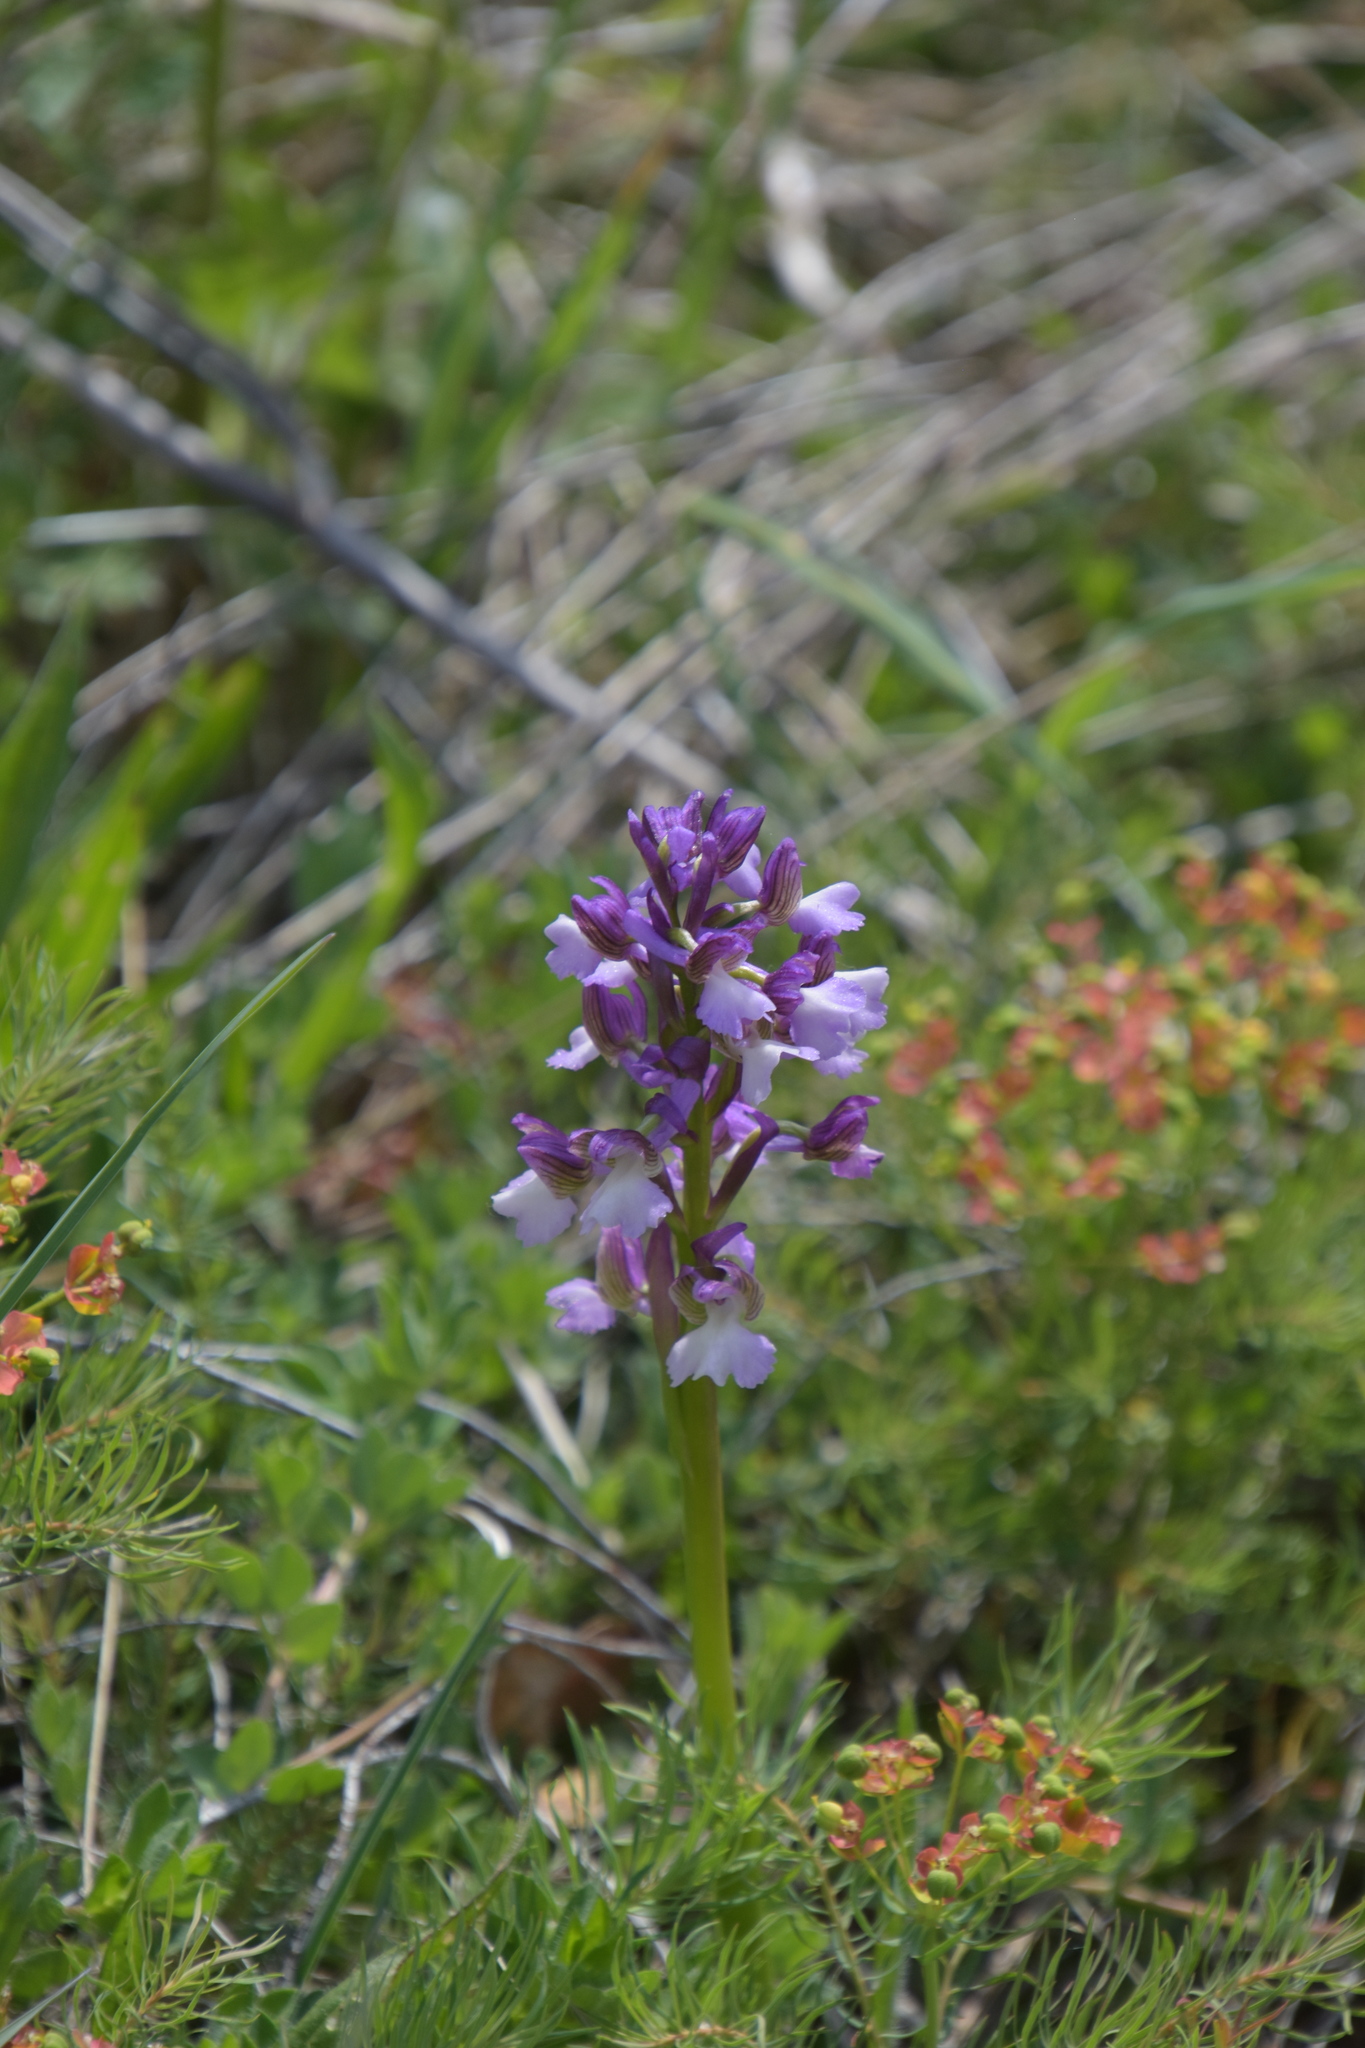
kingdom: Plantae
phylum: Tracheophyta
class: Liliopsida
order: Asparagales
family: Orchidaceae
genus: Anacamptis
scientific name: Anacamptis morio
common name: Green-winged orchid
